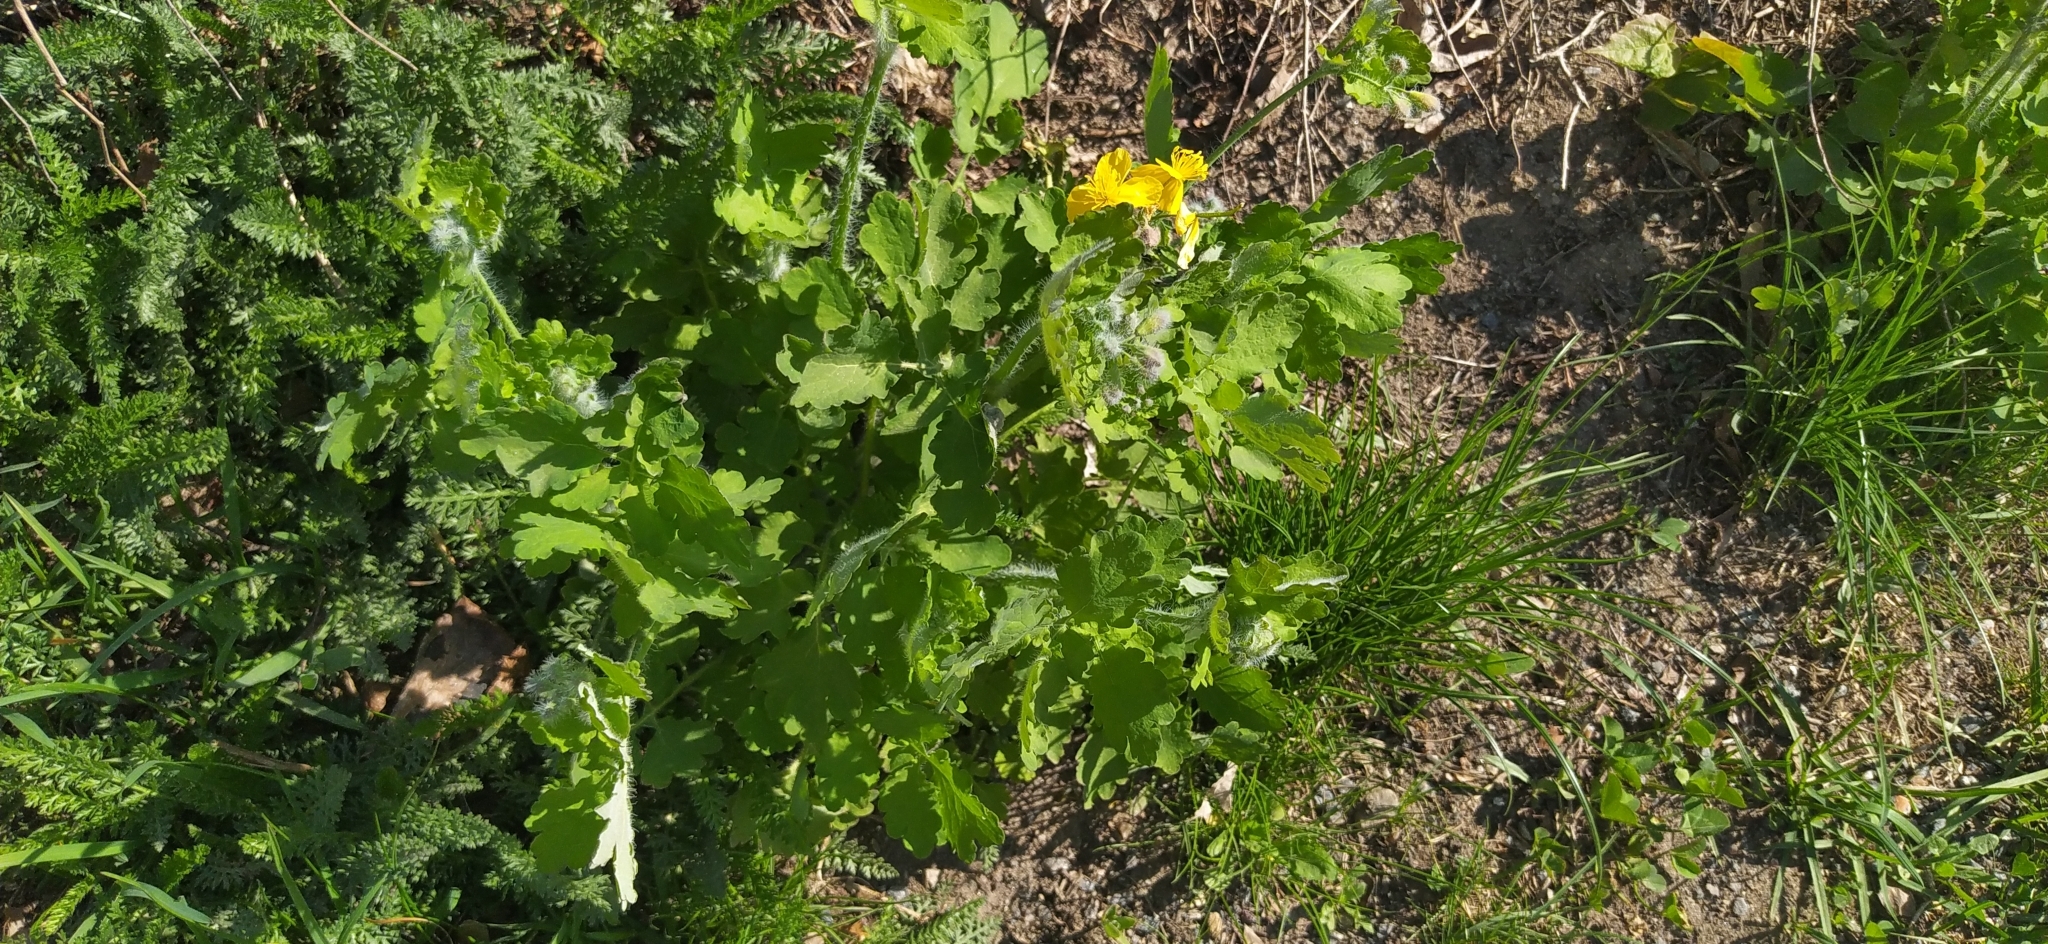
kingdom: Plantae
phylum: Tracheophyta
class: Magnoliopsida
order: Ranunculales
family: Papaveraceae
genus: Chelidonium
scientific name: Chelidonium majus
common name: Greater celandine
